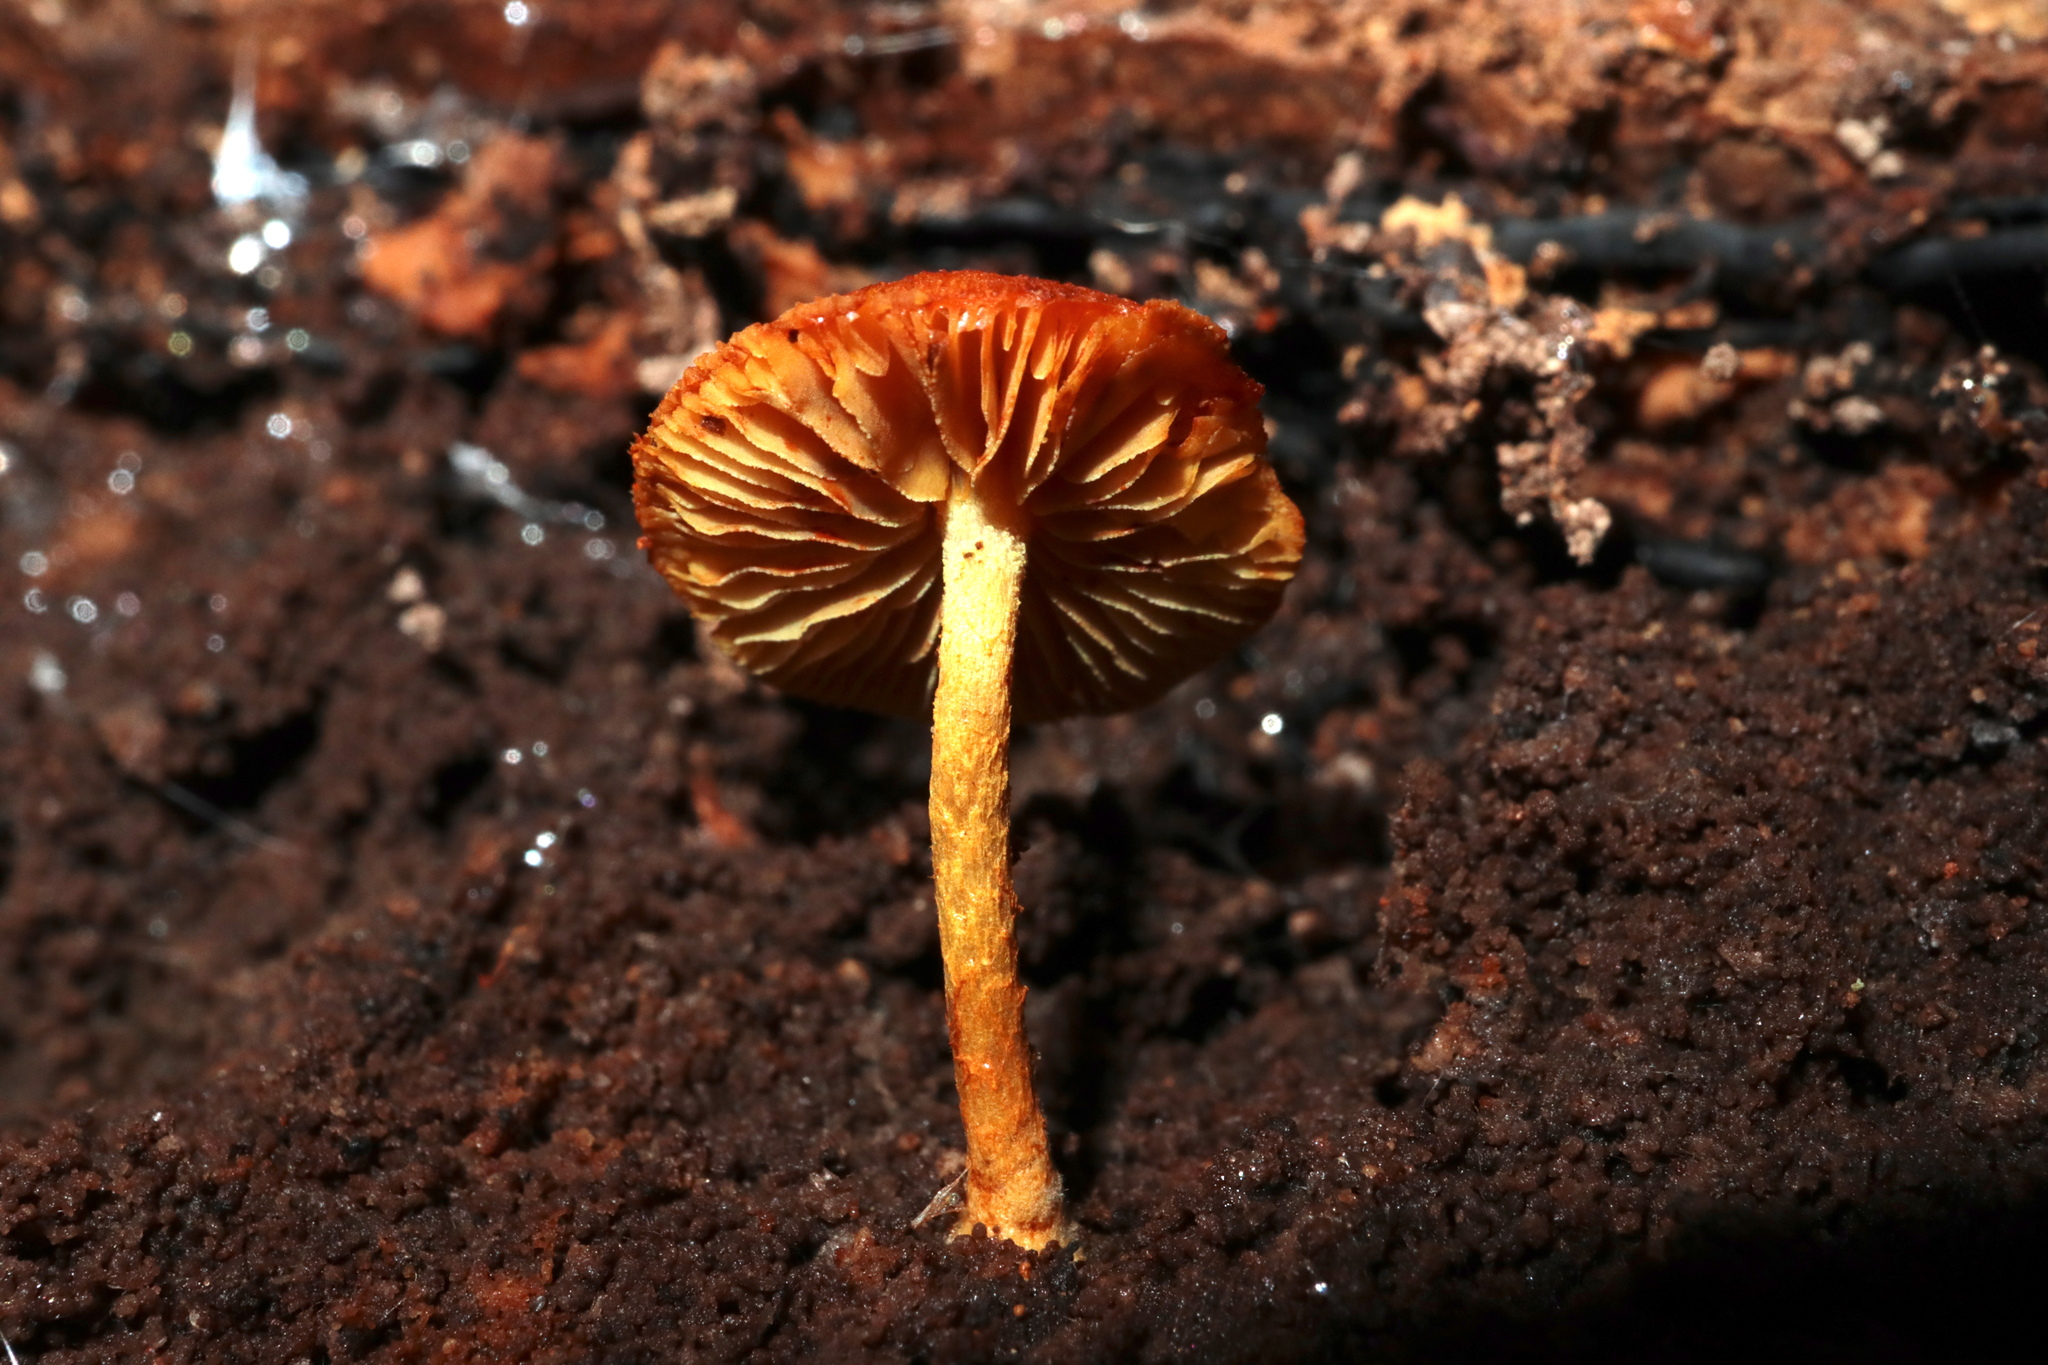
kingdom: Fungi
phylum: Basidiomycota
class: Agaricomycetes
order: Agaricales
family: Tubariaceae
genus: Flammulaster
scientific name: Flammulaster erinaceellus
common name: Powder-scale pholiota
